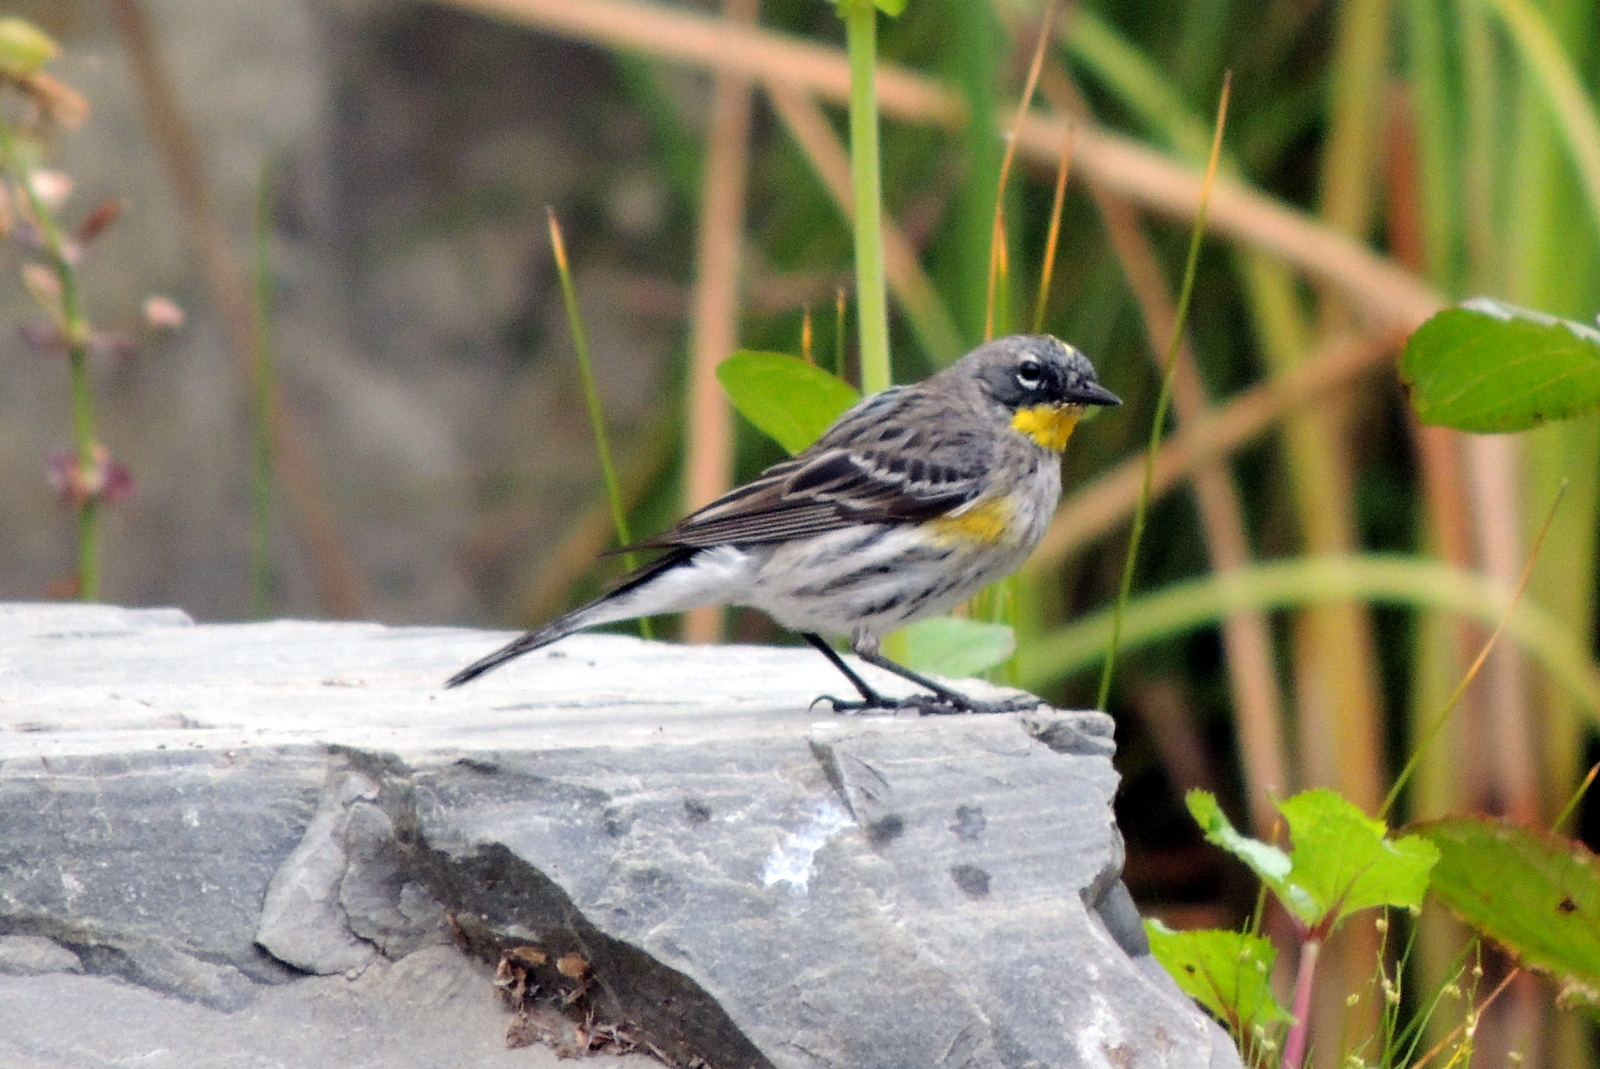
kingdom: Animalia
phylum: Chordata
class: Aves
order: Passeriformes
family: Parulidae
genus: Setophaga
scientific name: Setophaga coronata
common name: Myrtle warbler
